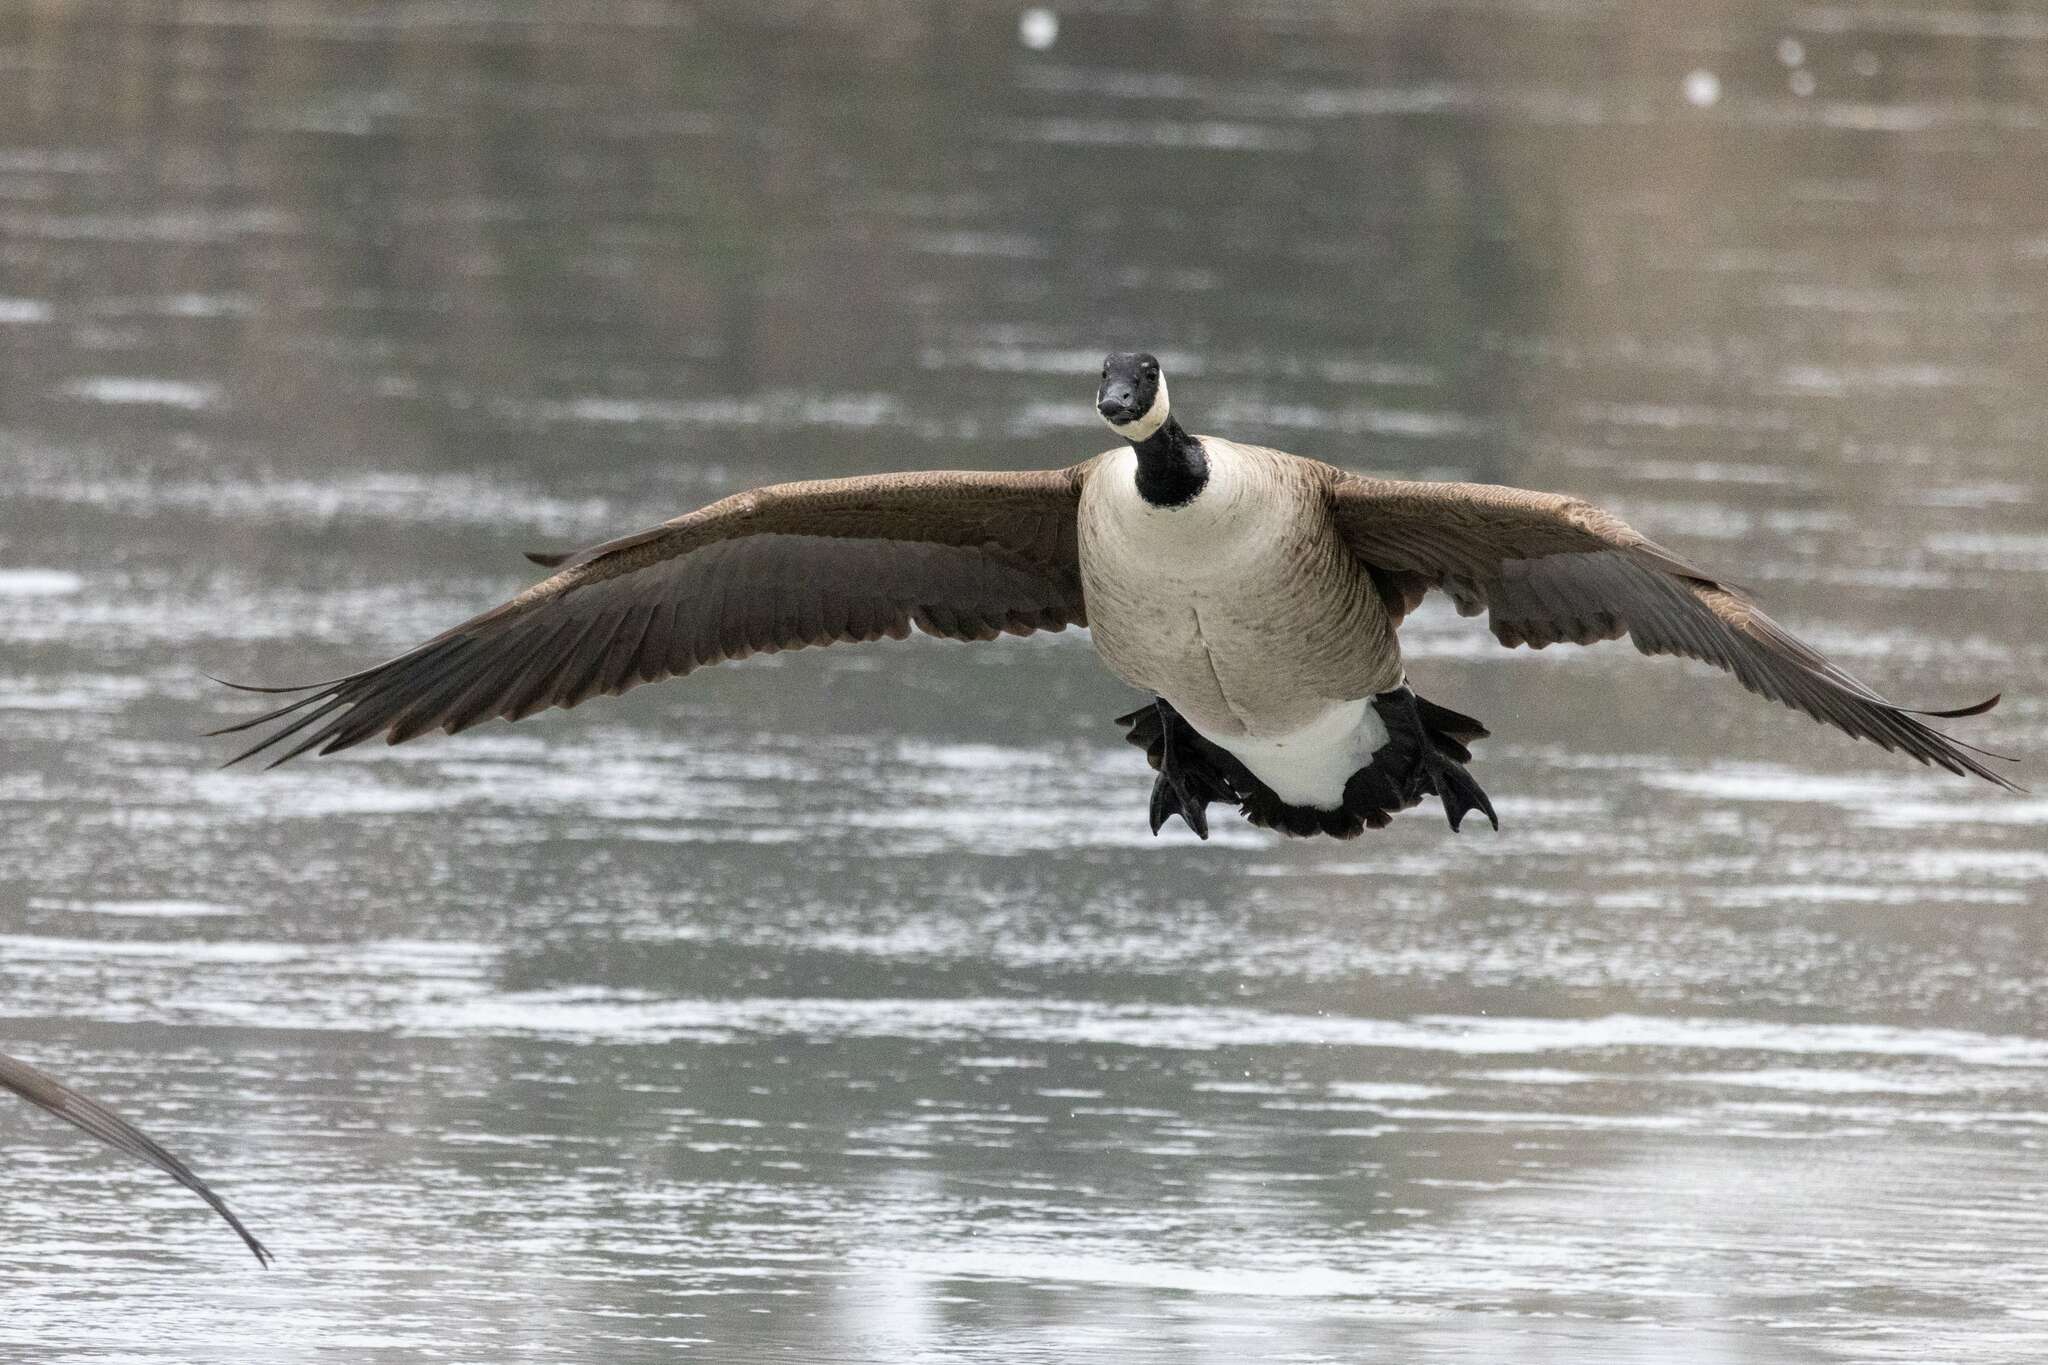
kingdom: Animalia
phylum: Chordata
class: Aves
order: Anseriformes
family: Anatidae
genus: Branta
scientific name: Branta canadensis
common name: Canada goose
